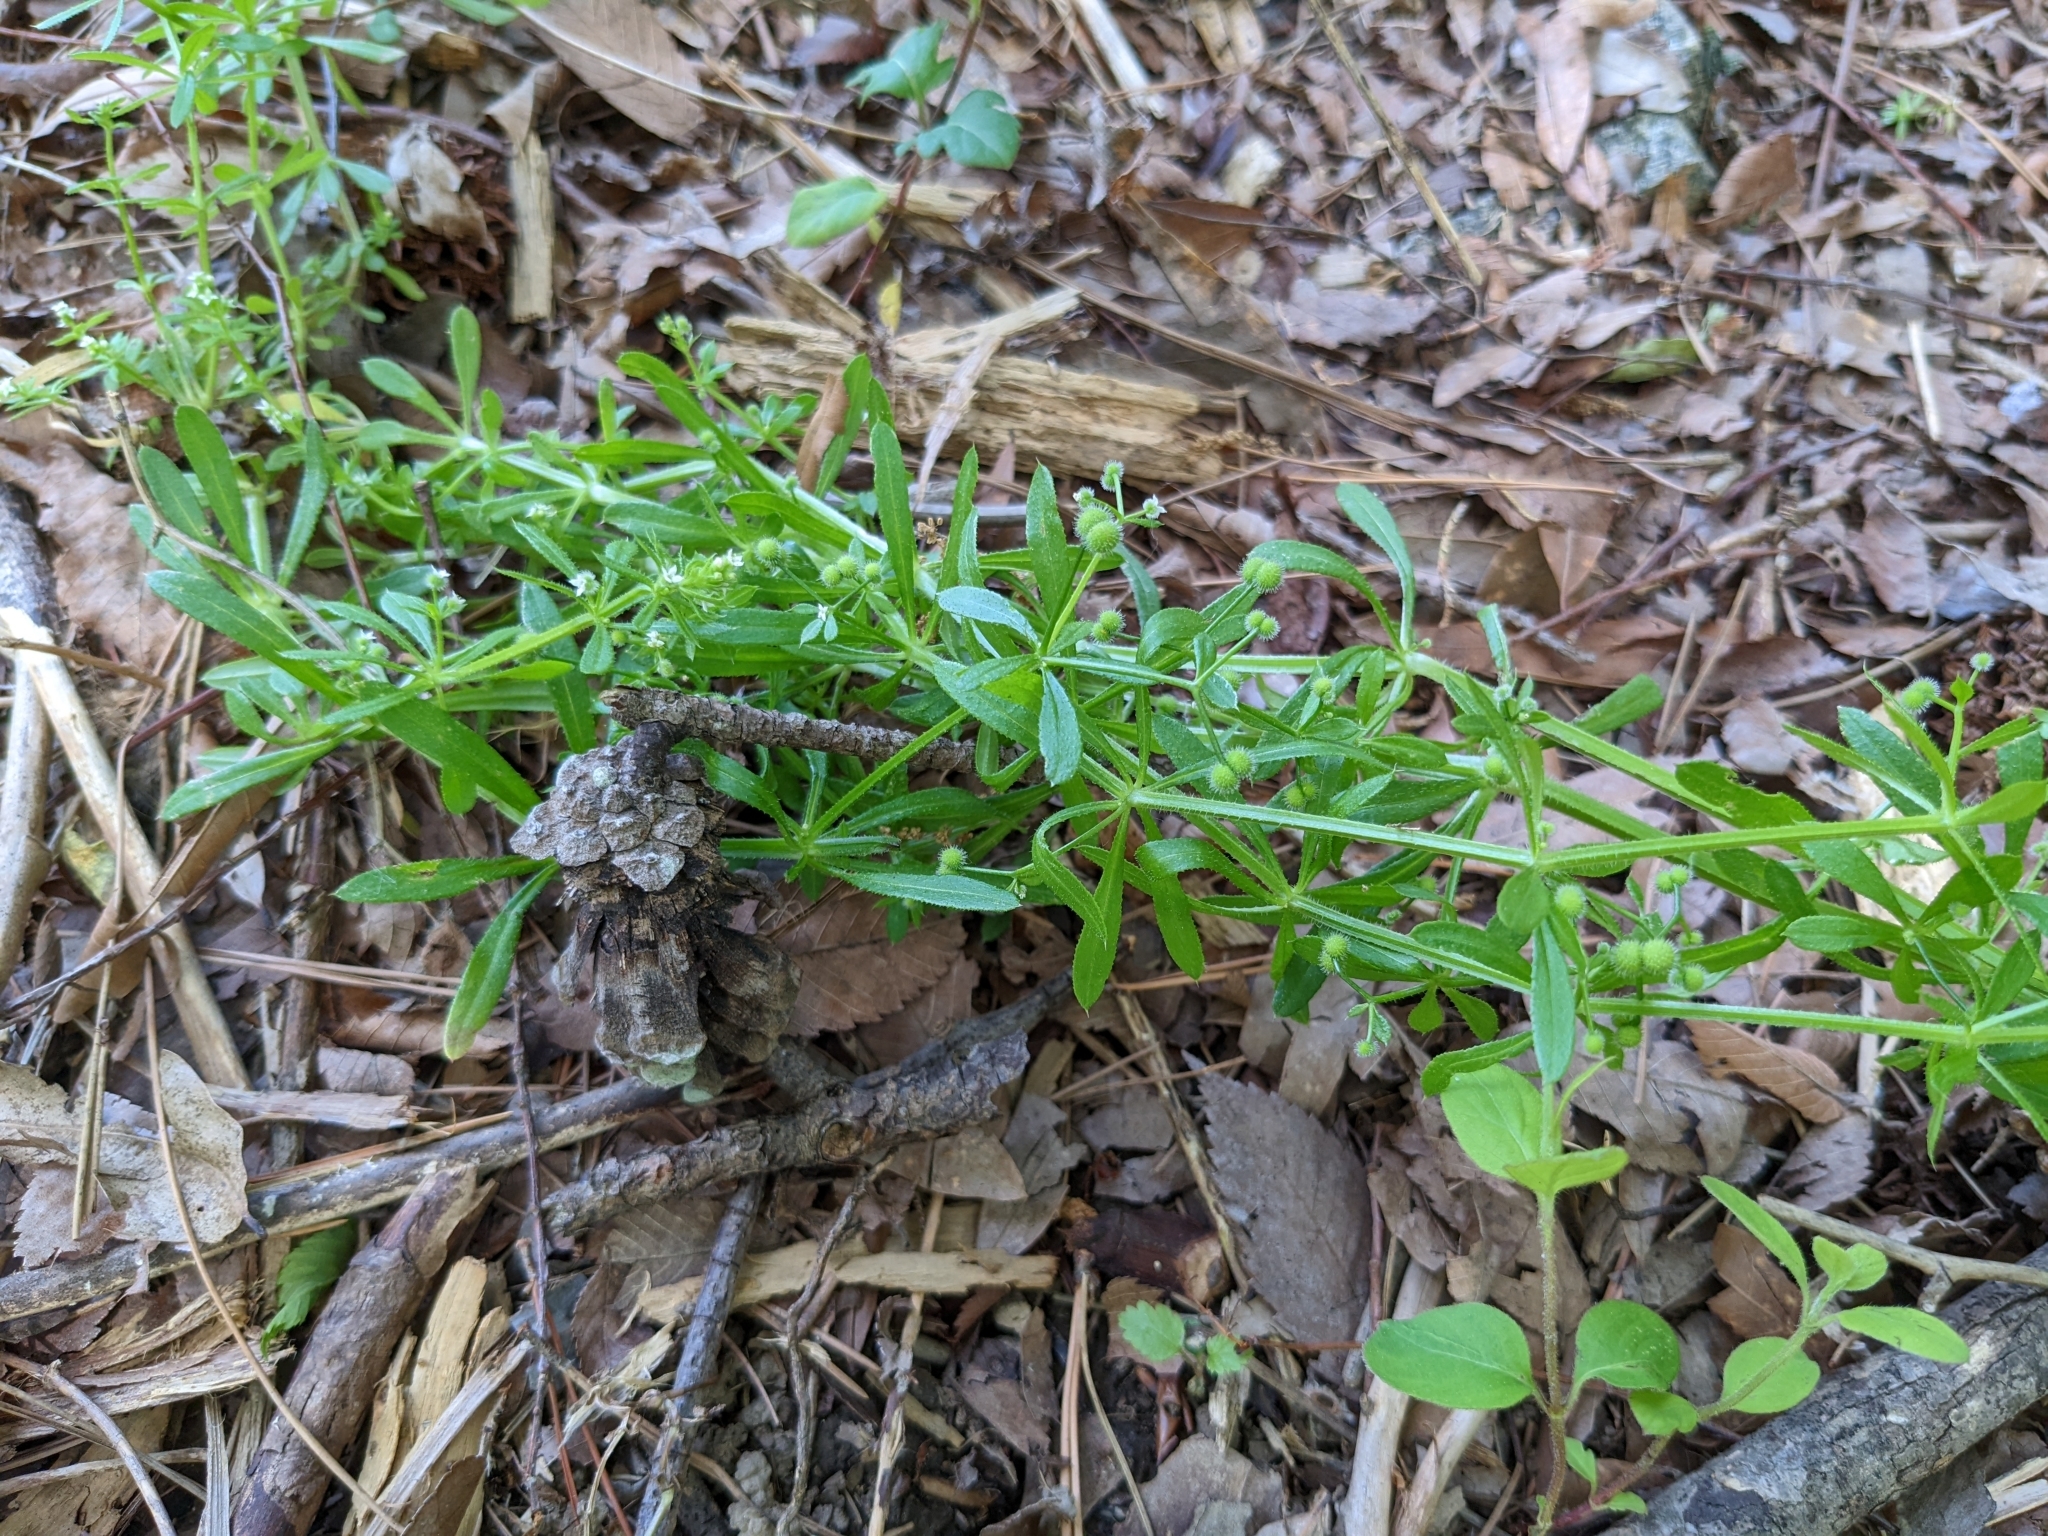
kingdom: Plantae
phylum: Tracheophyta
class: Magnoliopsida
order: Gentianales
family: Rubiaceae
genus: Galium
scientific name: Galium aparine
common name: Cleavers
